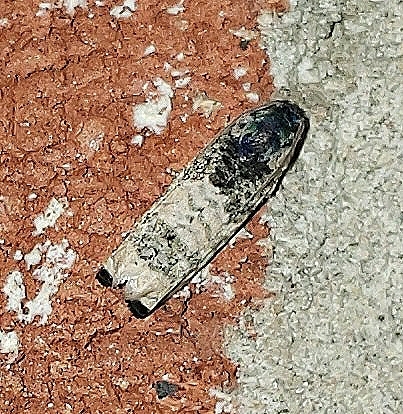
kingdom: Animalia
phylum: Arthropoda
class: Insecta
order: Lepidoptera
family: Tortricidae
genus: Epiblema
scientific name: Epiblema obfuscana
